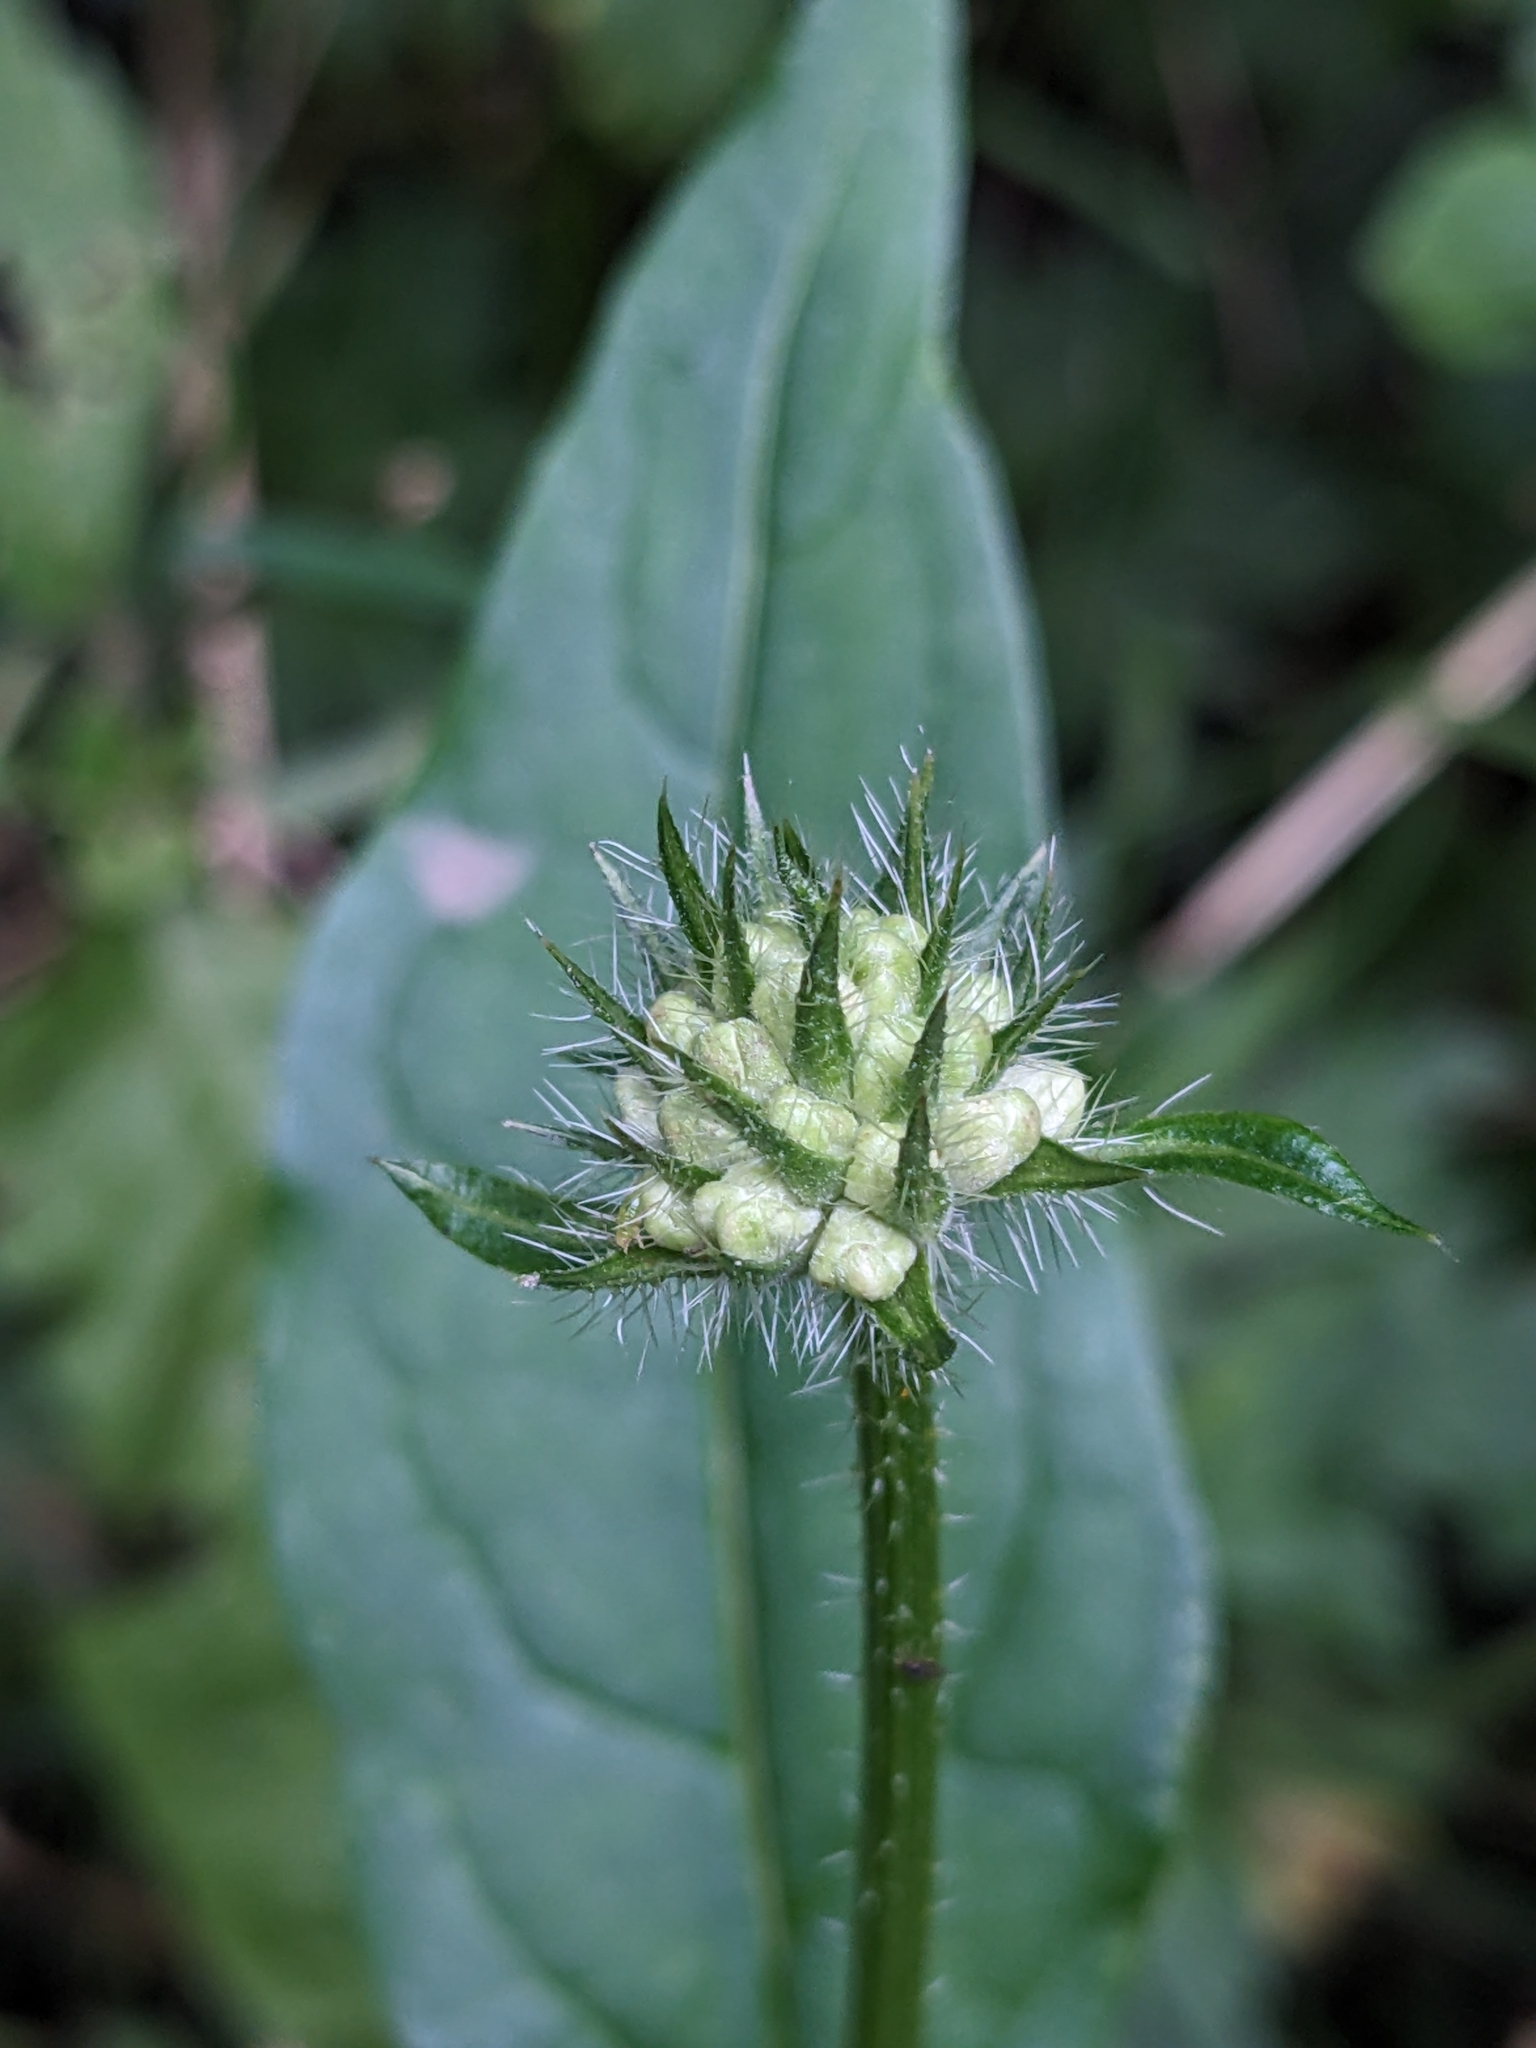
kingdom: Plantae
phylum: Tracheophyta
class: Magnoliopsida
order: Dipsacales
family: Caprifoliaceae
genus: Dipsacus
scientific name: Dipsacus pilosus
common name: Small teasel
